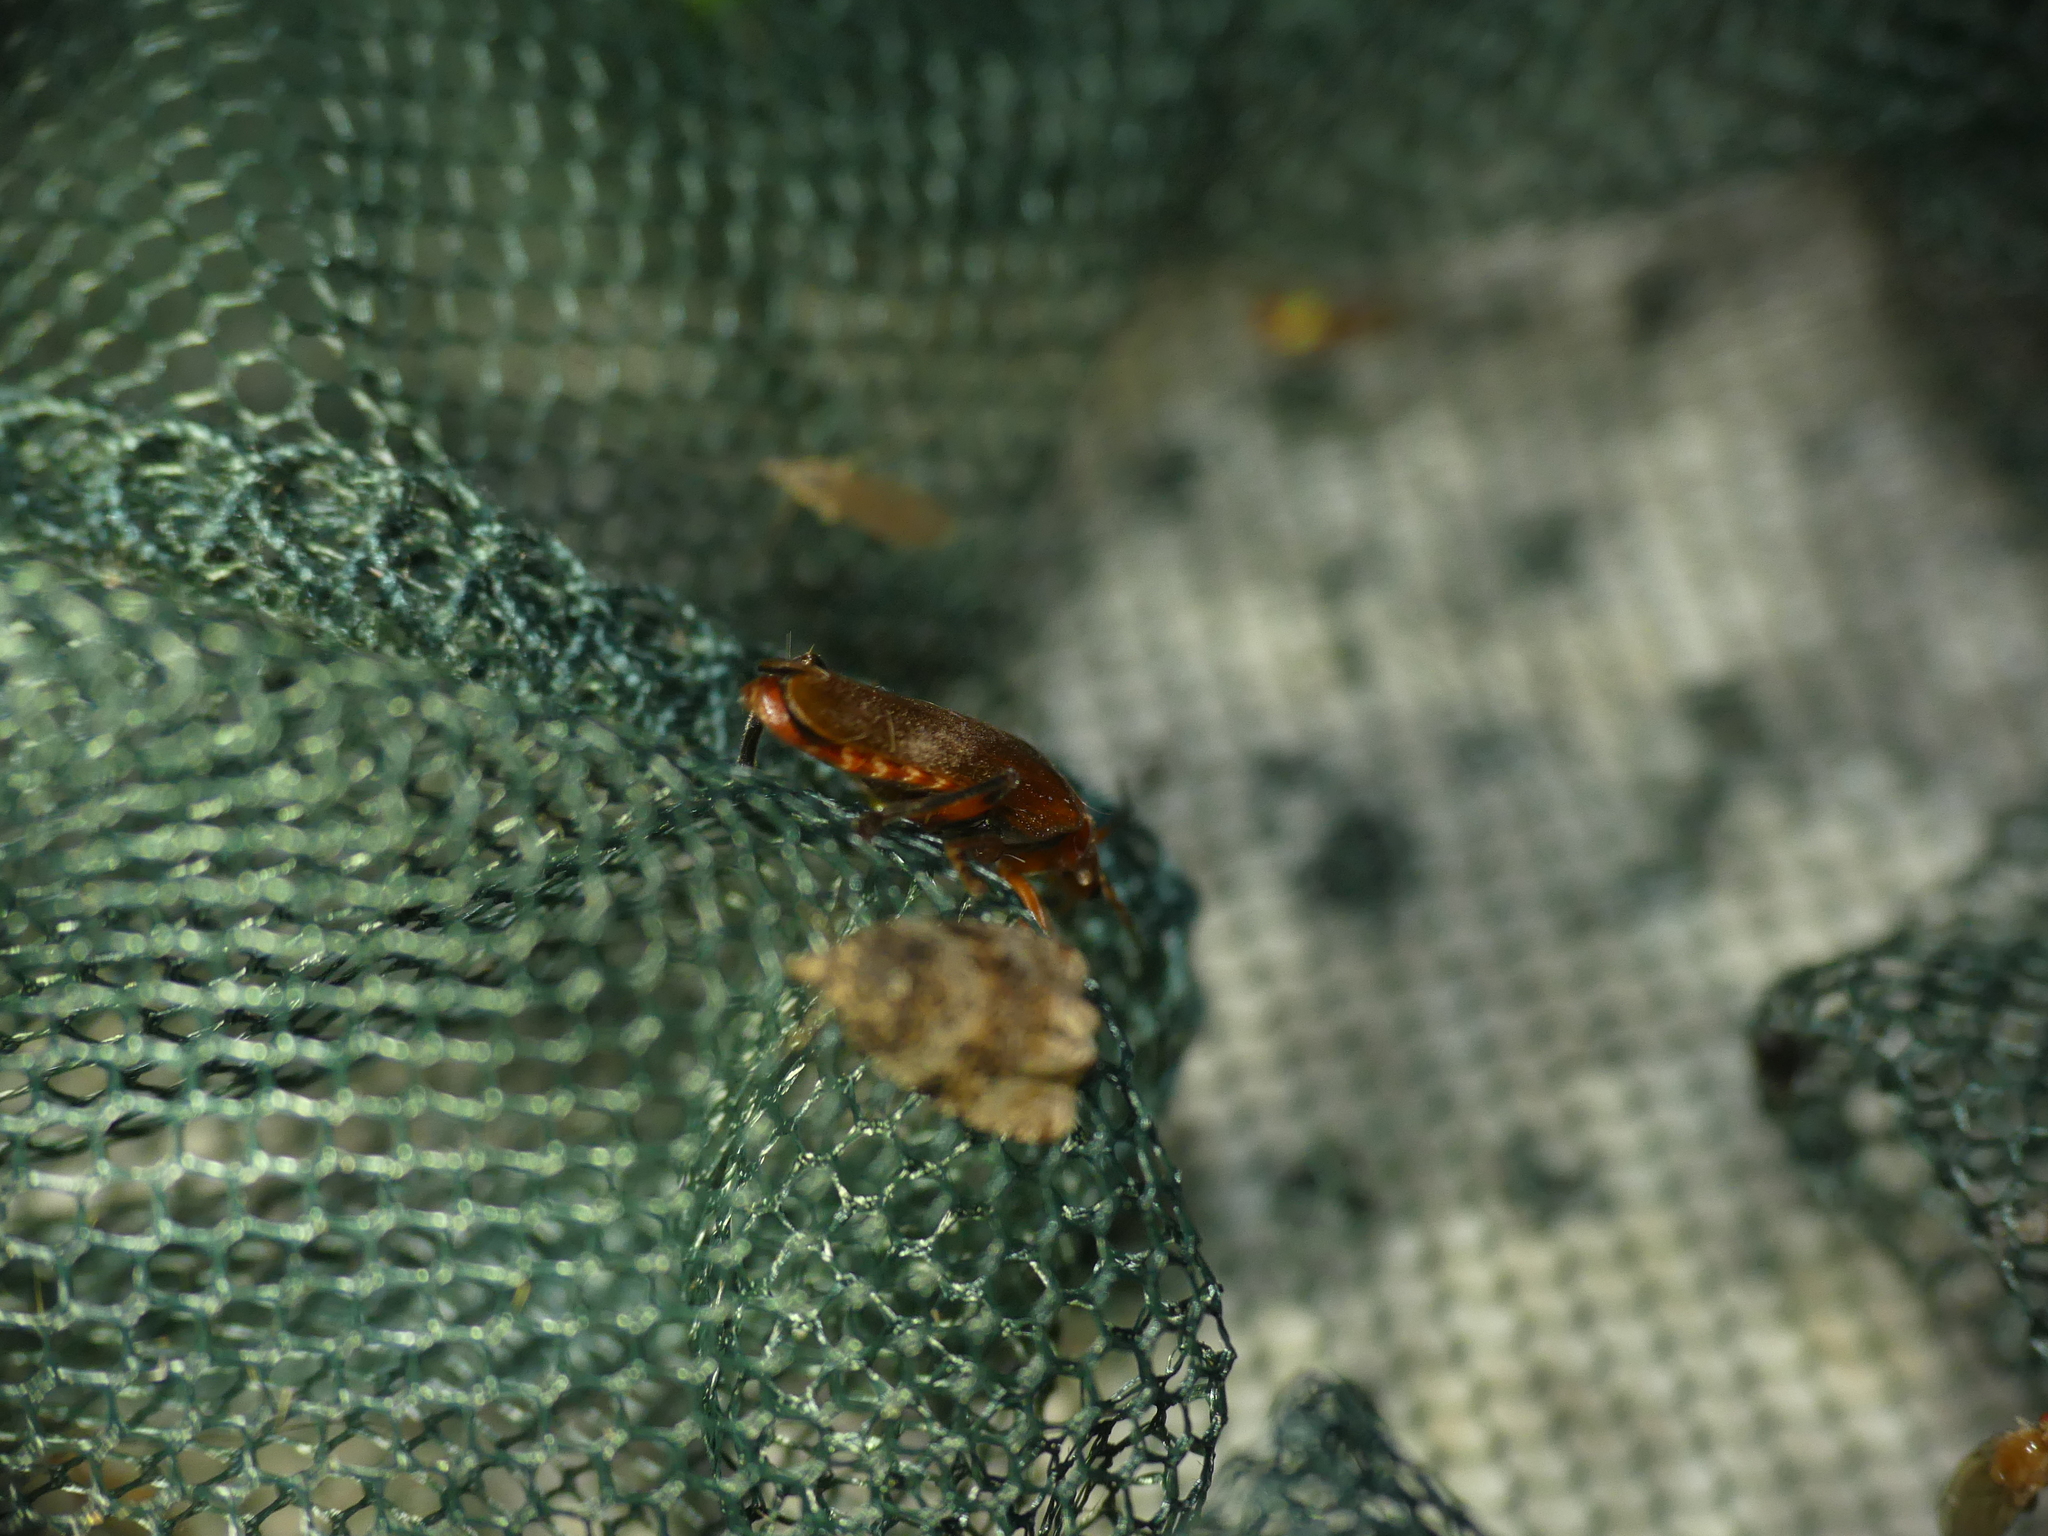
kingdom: Animalia
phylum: Arthropoda
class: Insecta
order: Coleoptera
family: Cantharidae
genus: Cantharis
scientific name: Cantharis livida
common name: Livid soldier beetle
